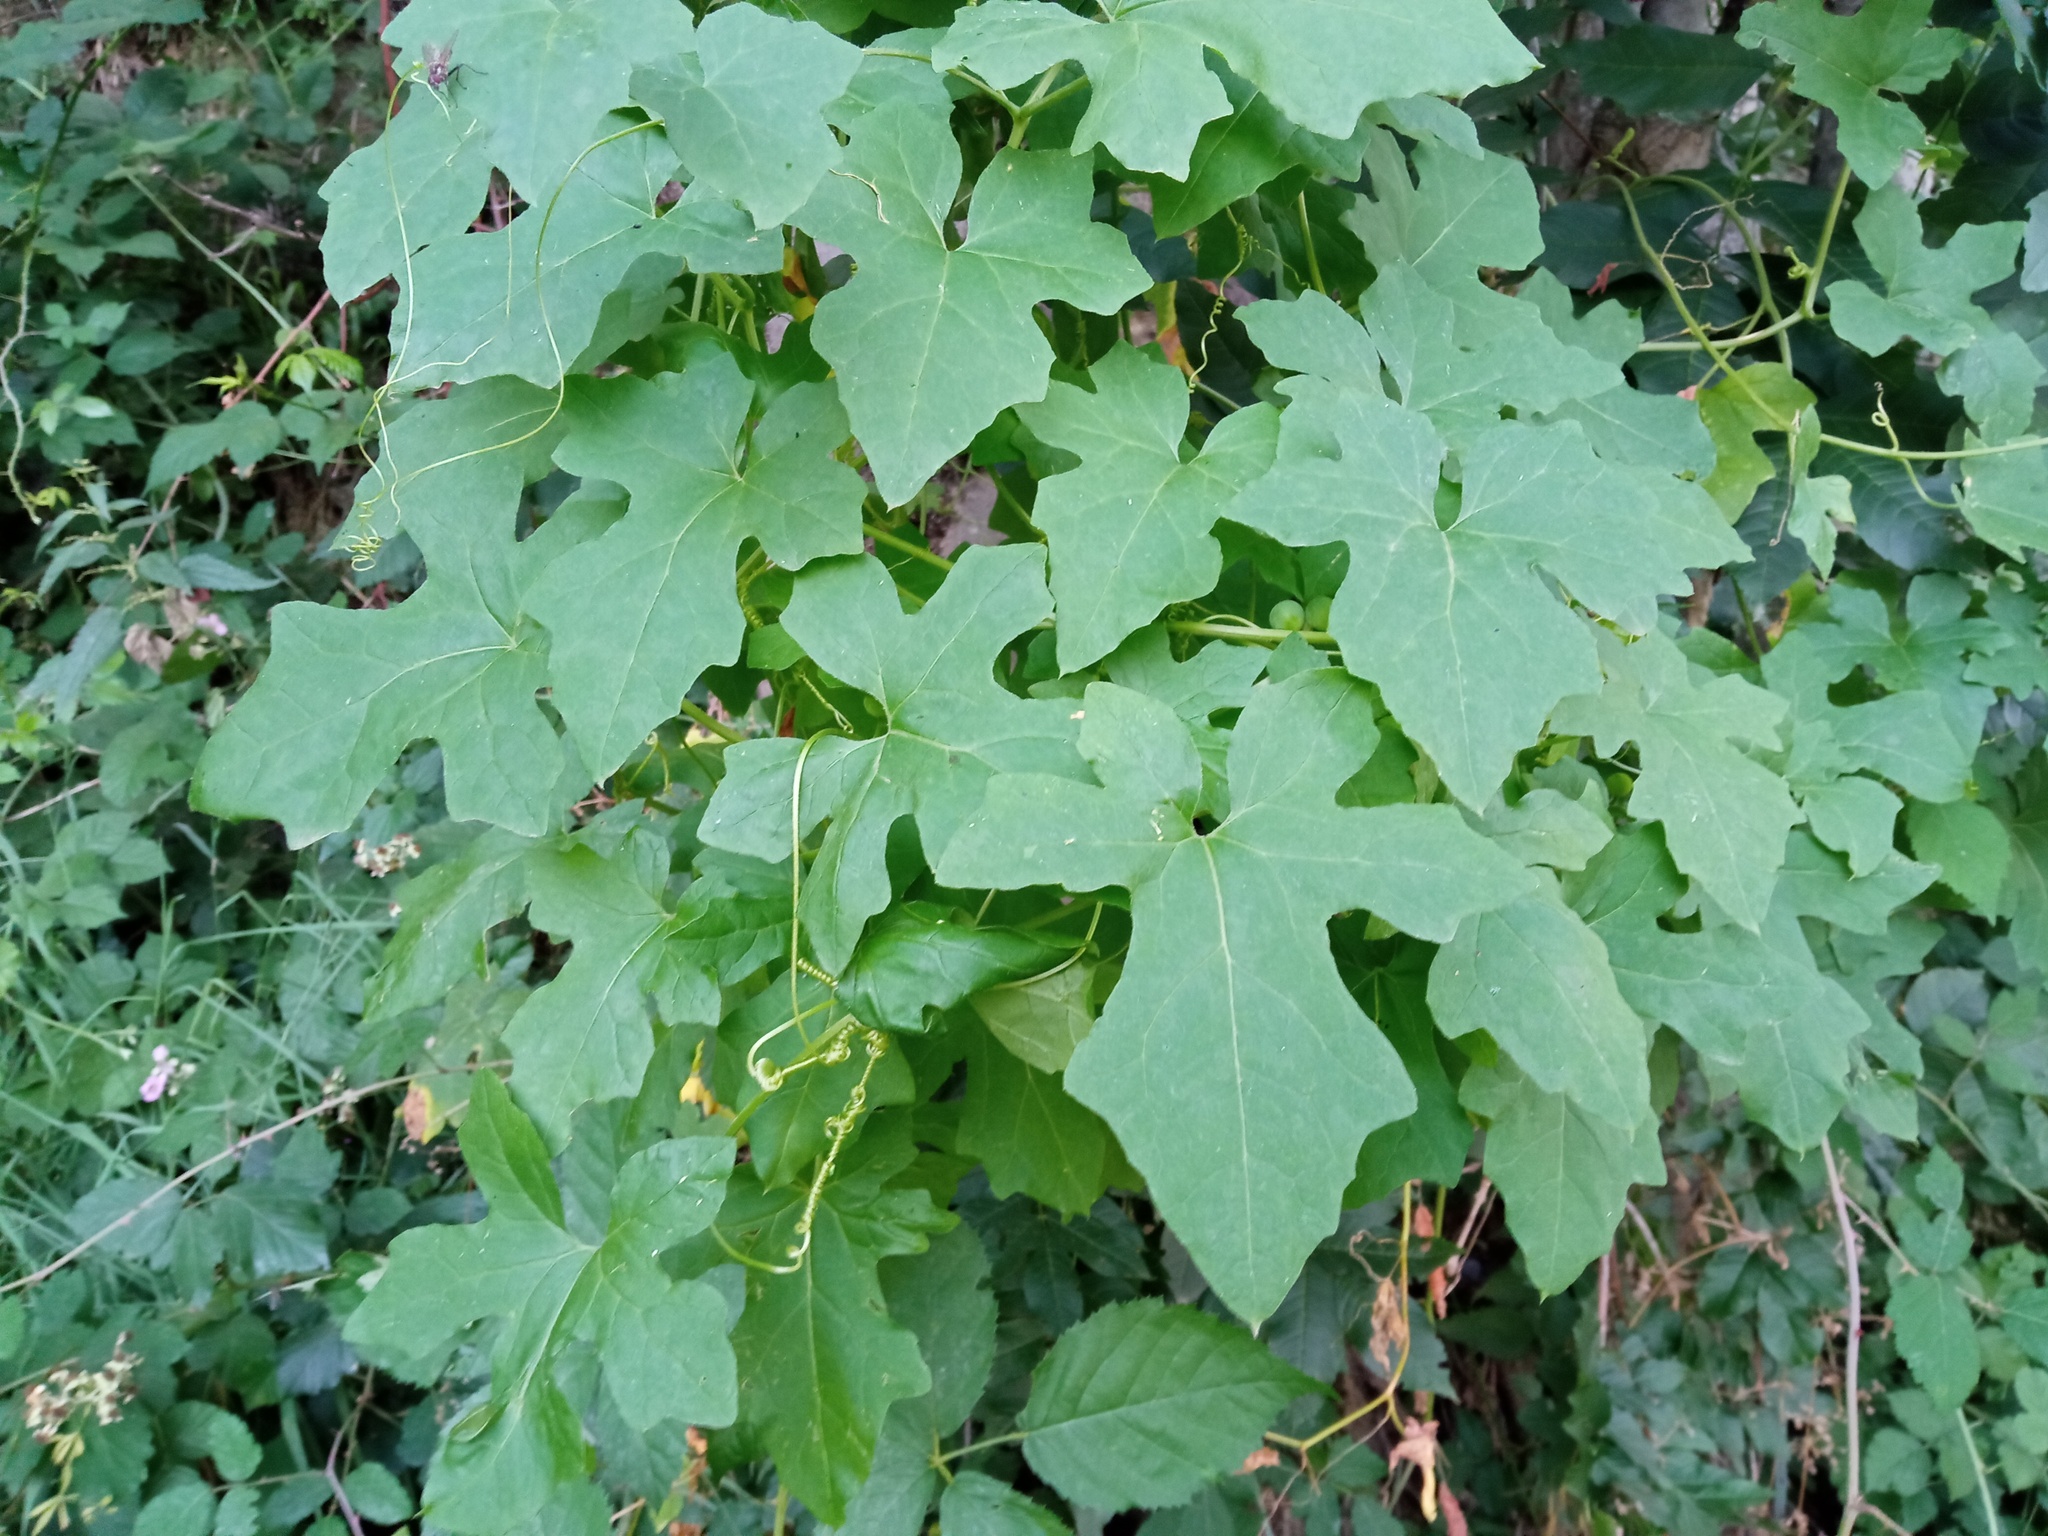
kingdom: Plantae
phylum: Tracheophyta
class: Magnoliopsida
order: Cucurbitales
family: Cucurbitaceae
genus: Bryonia
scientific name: Bryonia dioica
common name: White bryony
